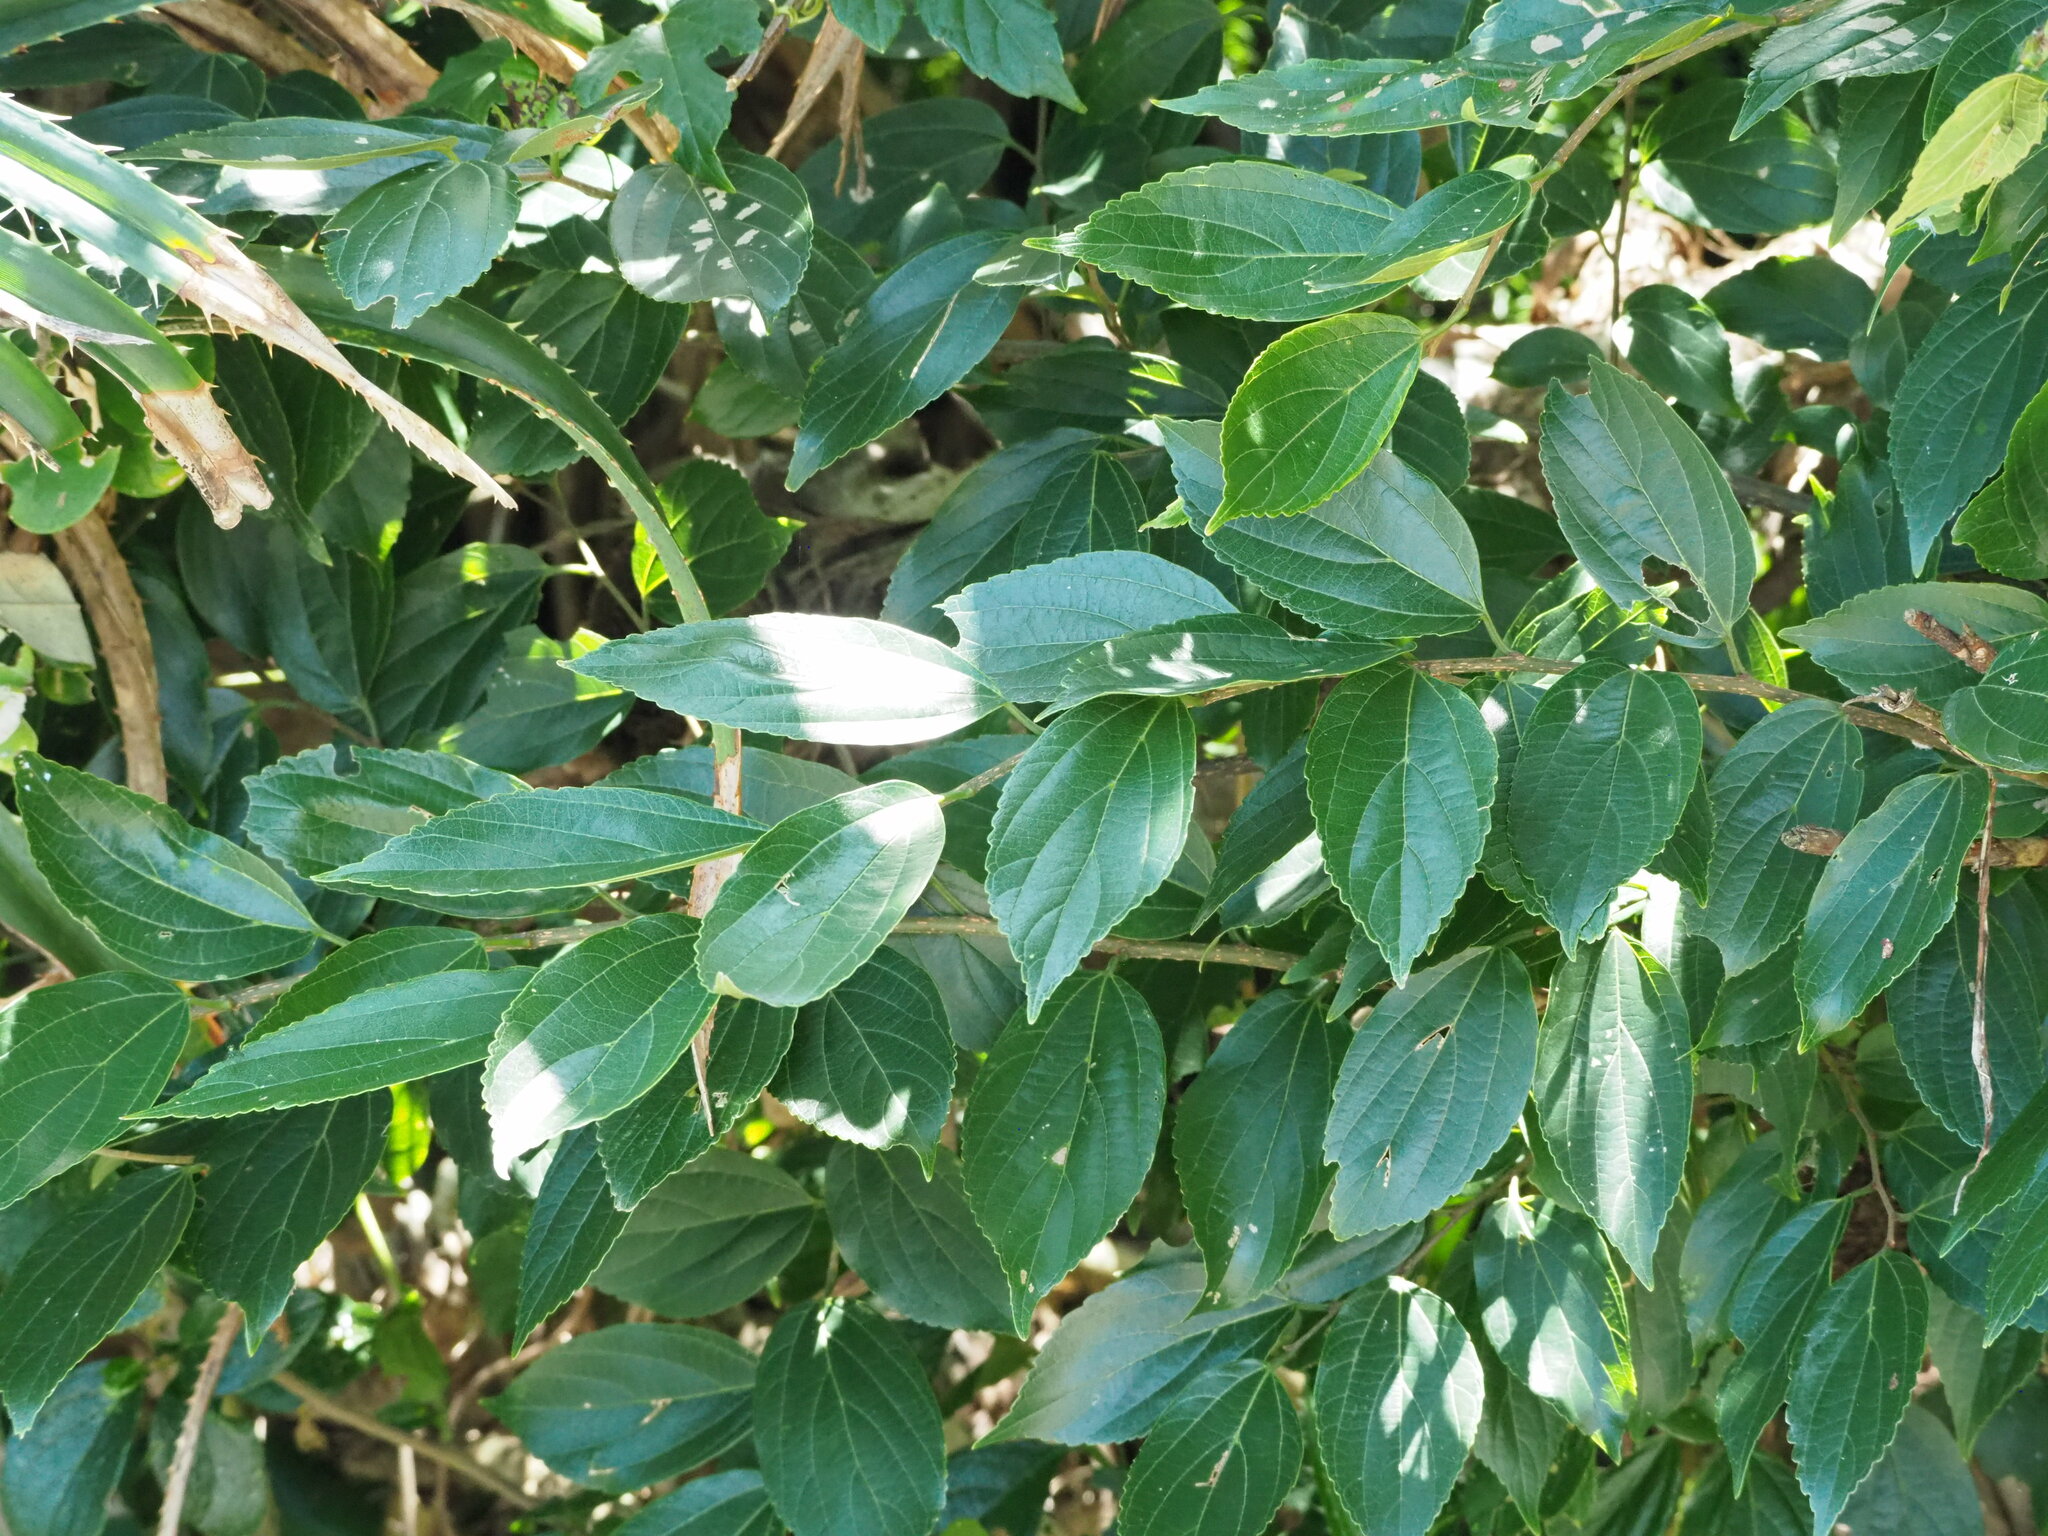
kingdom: Plantae
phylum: Tracheophyta
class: Magnoliopsida
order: Rosales
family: Cannabaceae
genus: Celtis
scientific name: Celtis sinensis
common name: Chinese hackberry
